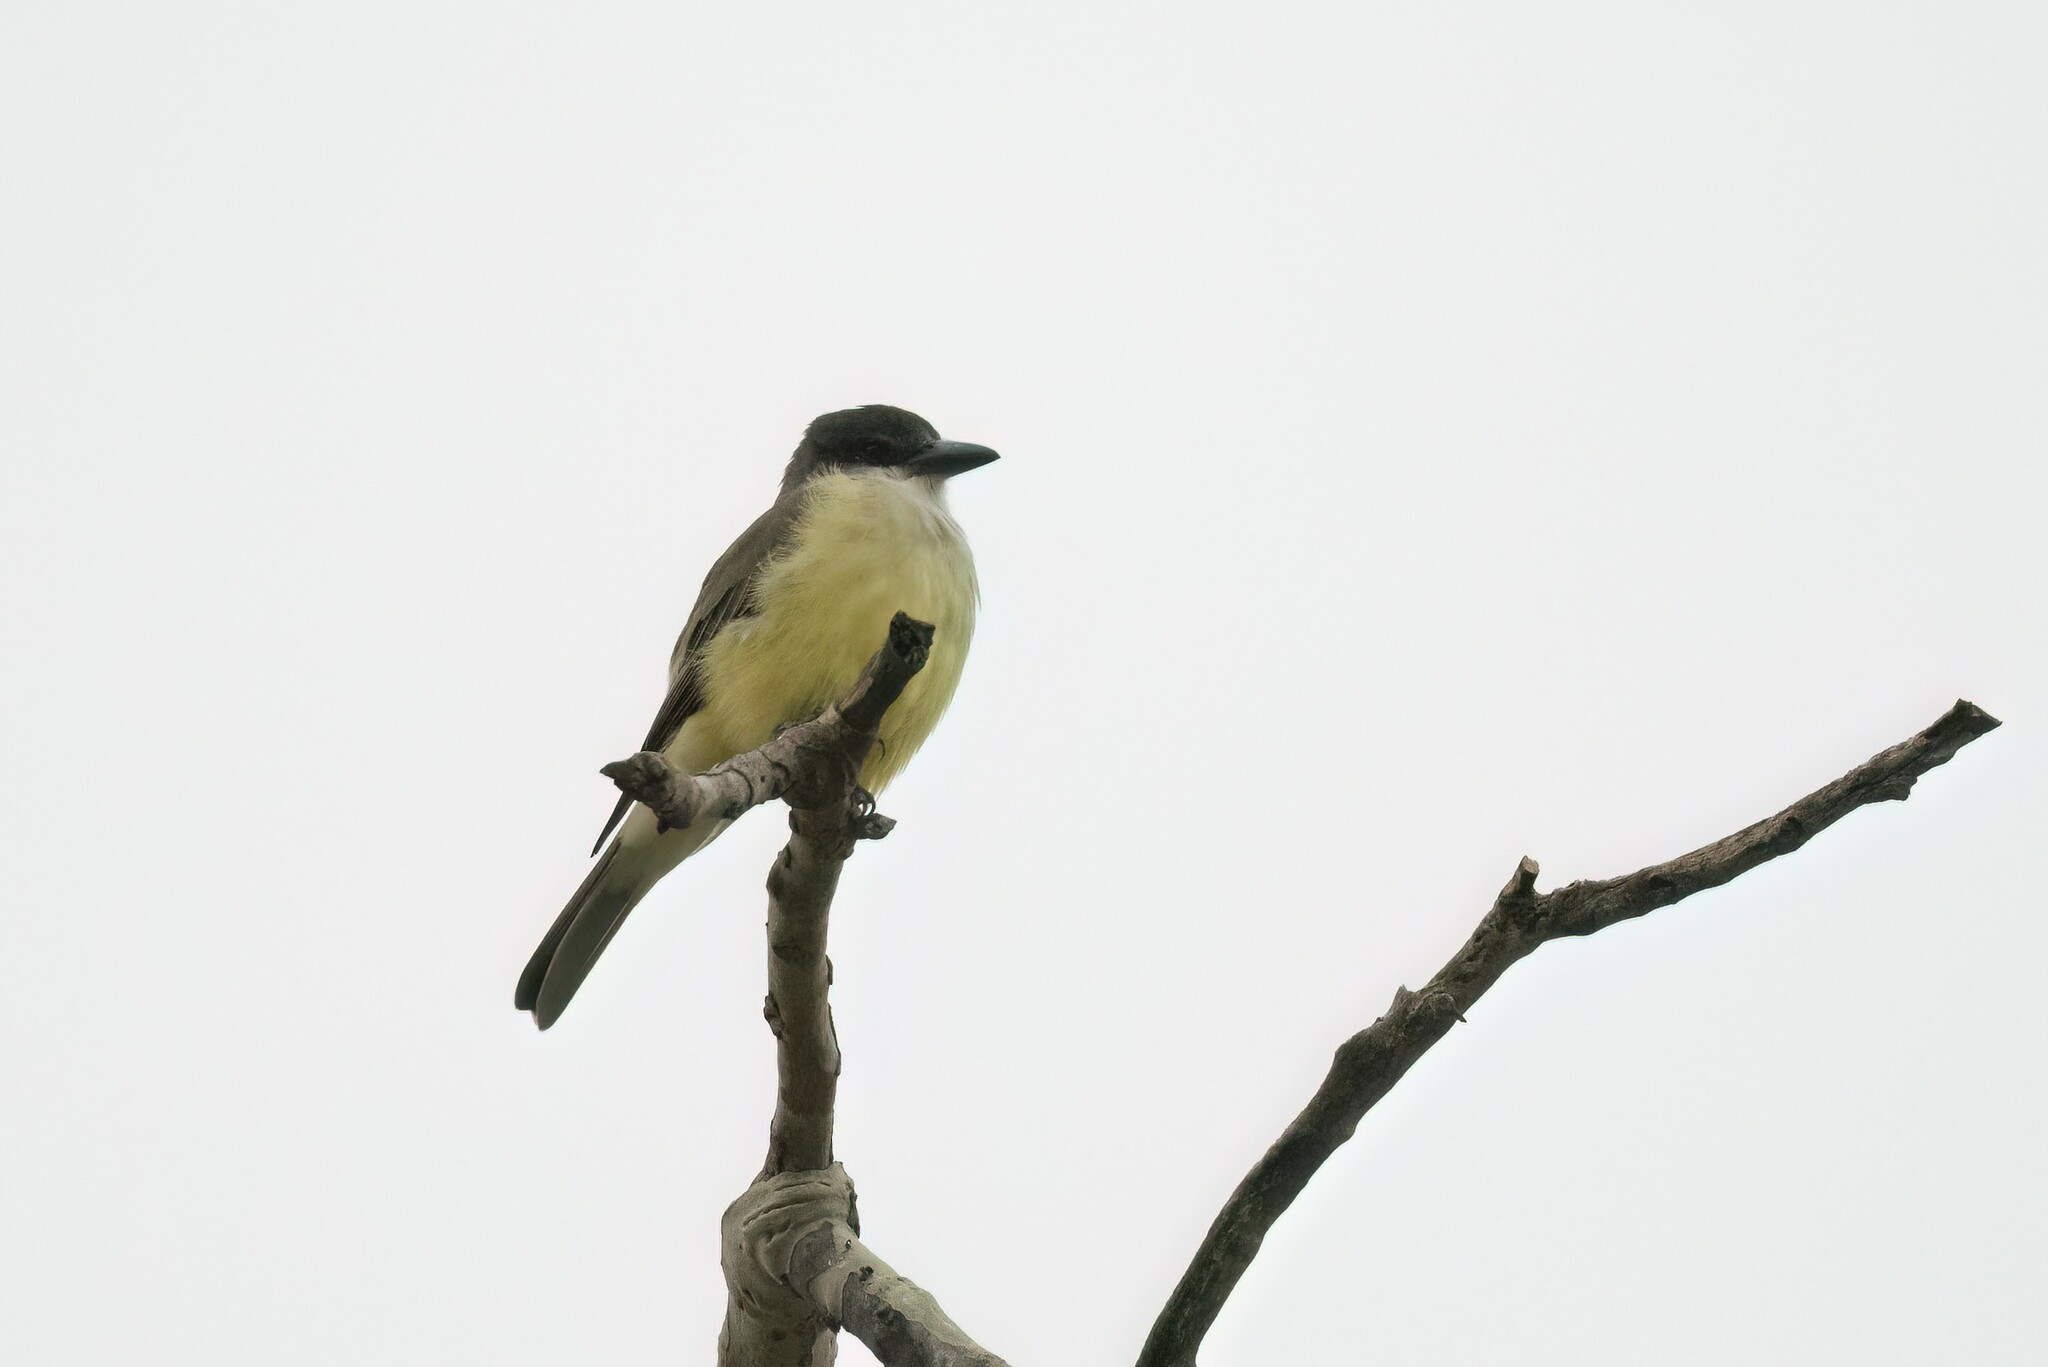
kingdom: Animalia
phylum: Chordata
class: Aves
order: Passeriformes
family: Tyrannidae
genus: Tyrannus
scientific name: Tyrannus crassirostris
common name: Thick-billed kingbird
